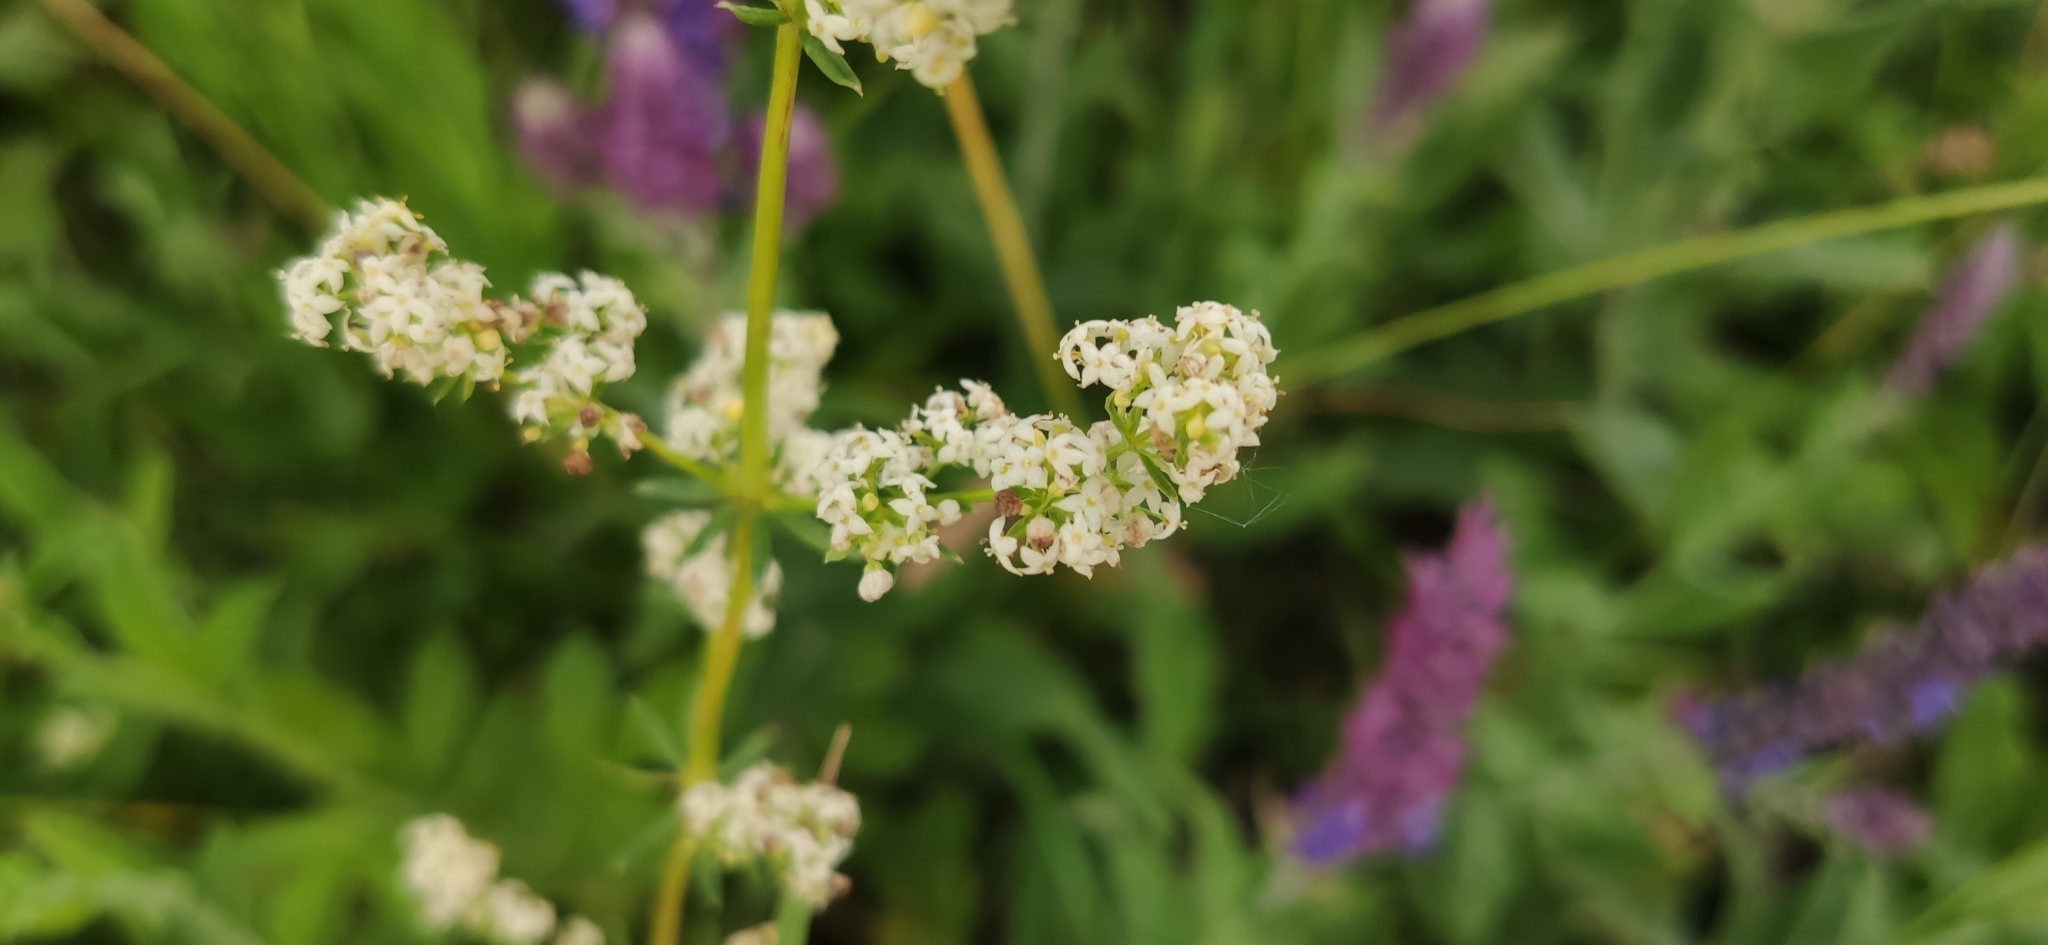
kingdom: Plantae
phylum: Tracheophyta
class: Magnoliopsida
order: Gentianales
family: Rubiaceae
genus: Galium
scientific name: Galium mollugo
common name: Hedge bedstraw
